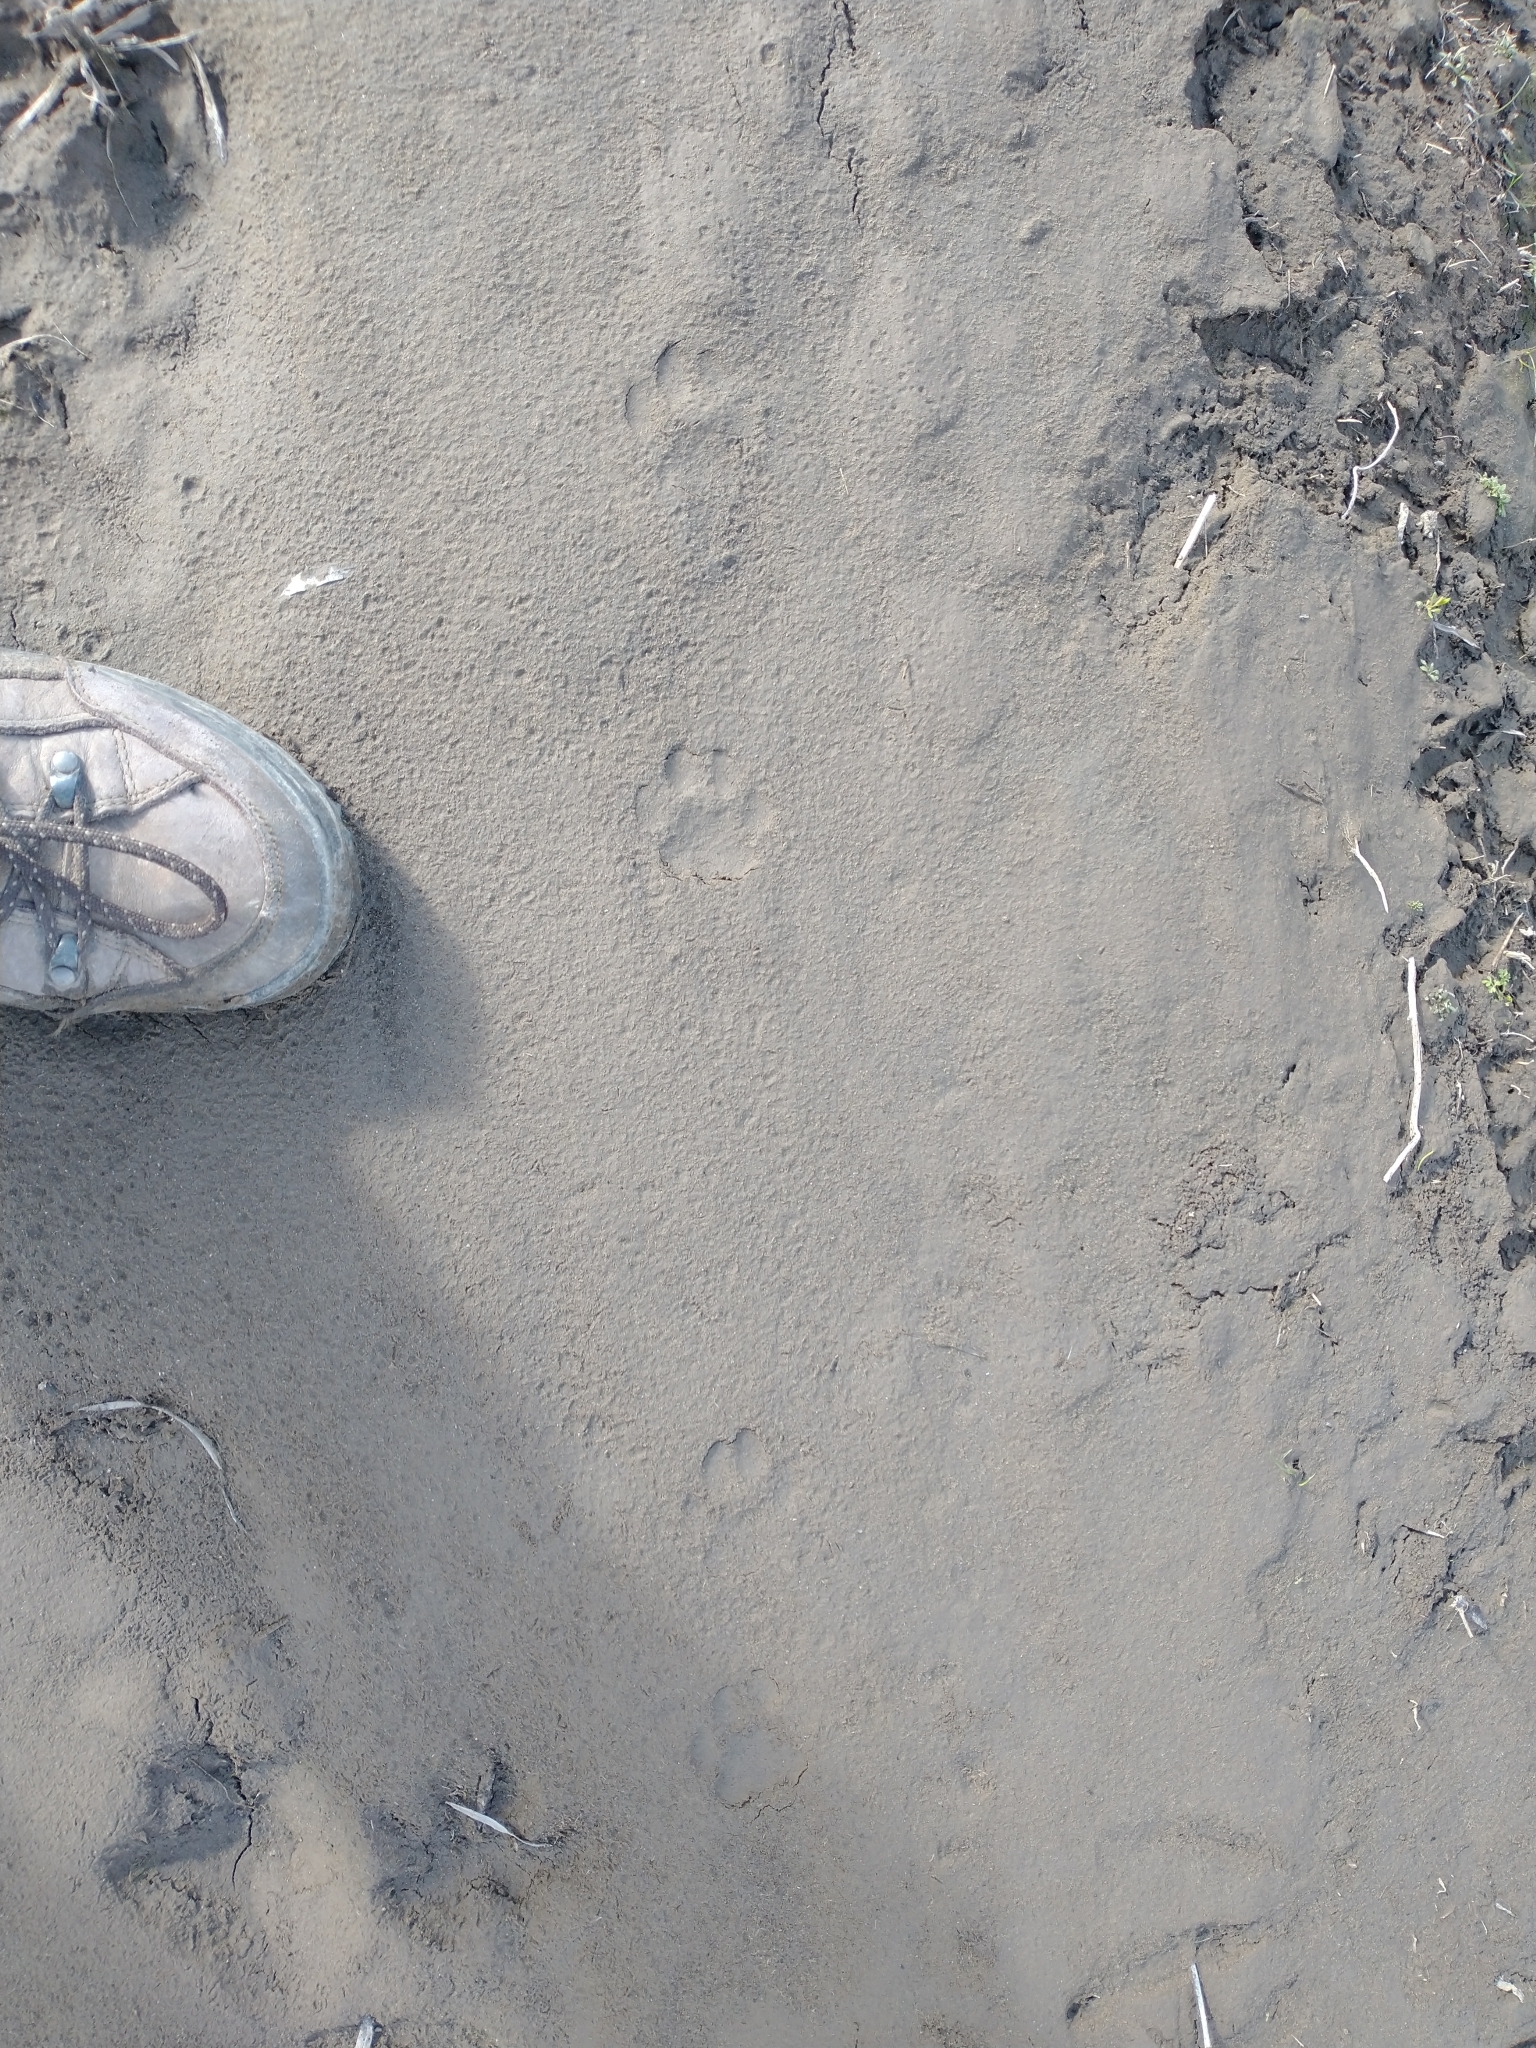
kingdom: Animalia
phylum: Chordata
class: Mammalia
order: Carnivora
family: Felidae
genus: Lynx
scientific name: Lynx rufus
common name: Bobcat
